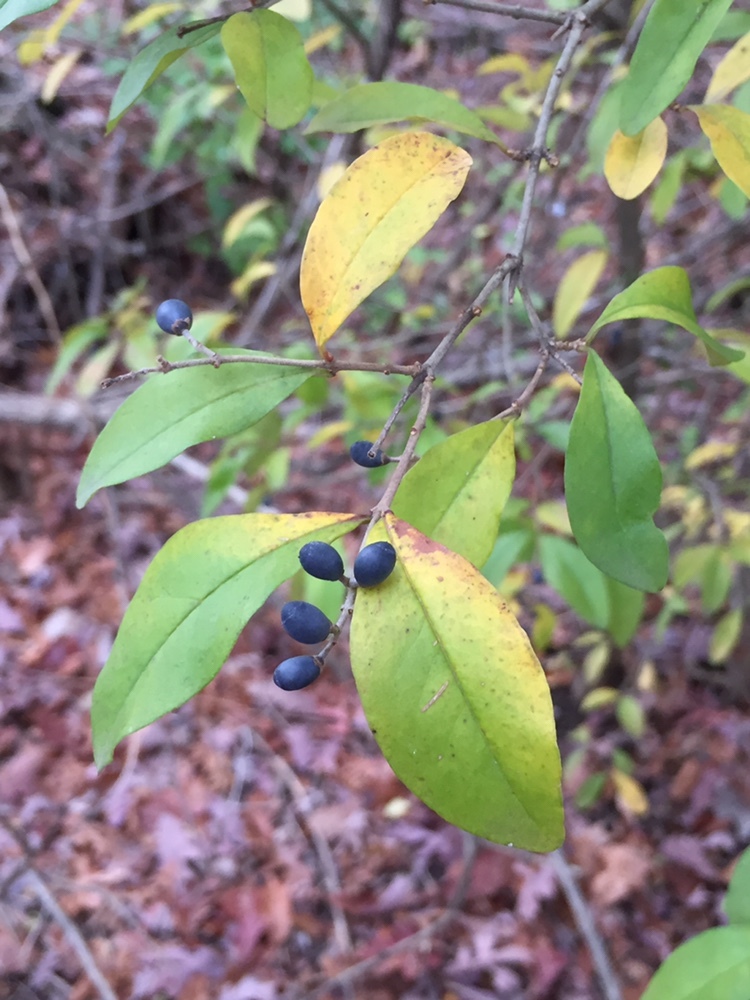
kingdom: Plantae
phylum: Tracheophyta
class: Magnoliopsida
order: Lamiales
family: Oleaceae
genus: Ligustrum
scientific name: Ligustrum obtusifolium
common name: Border privet
